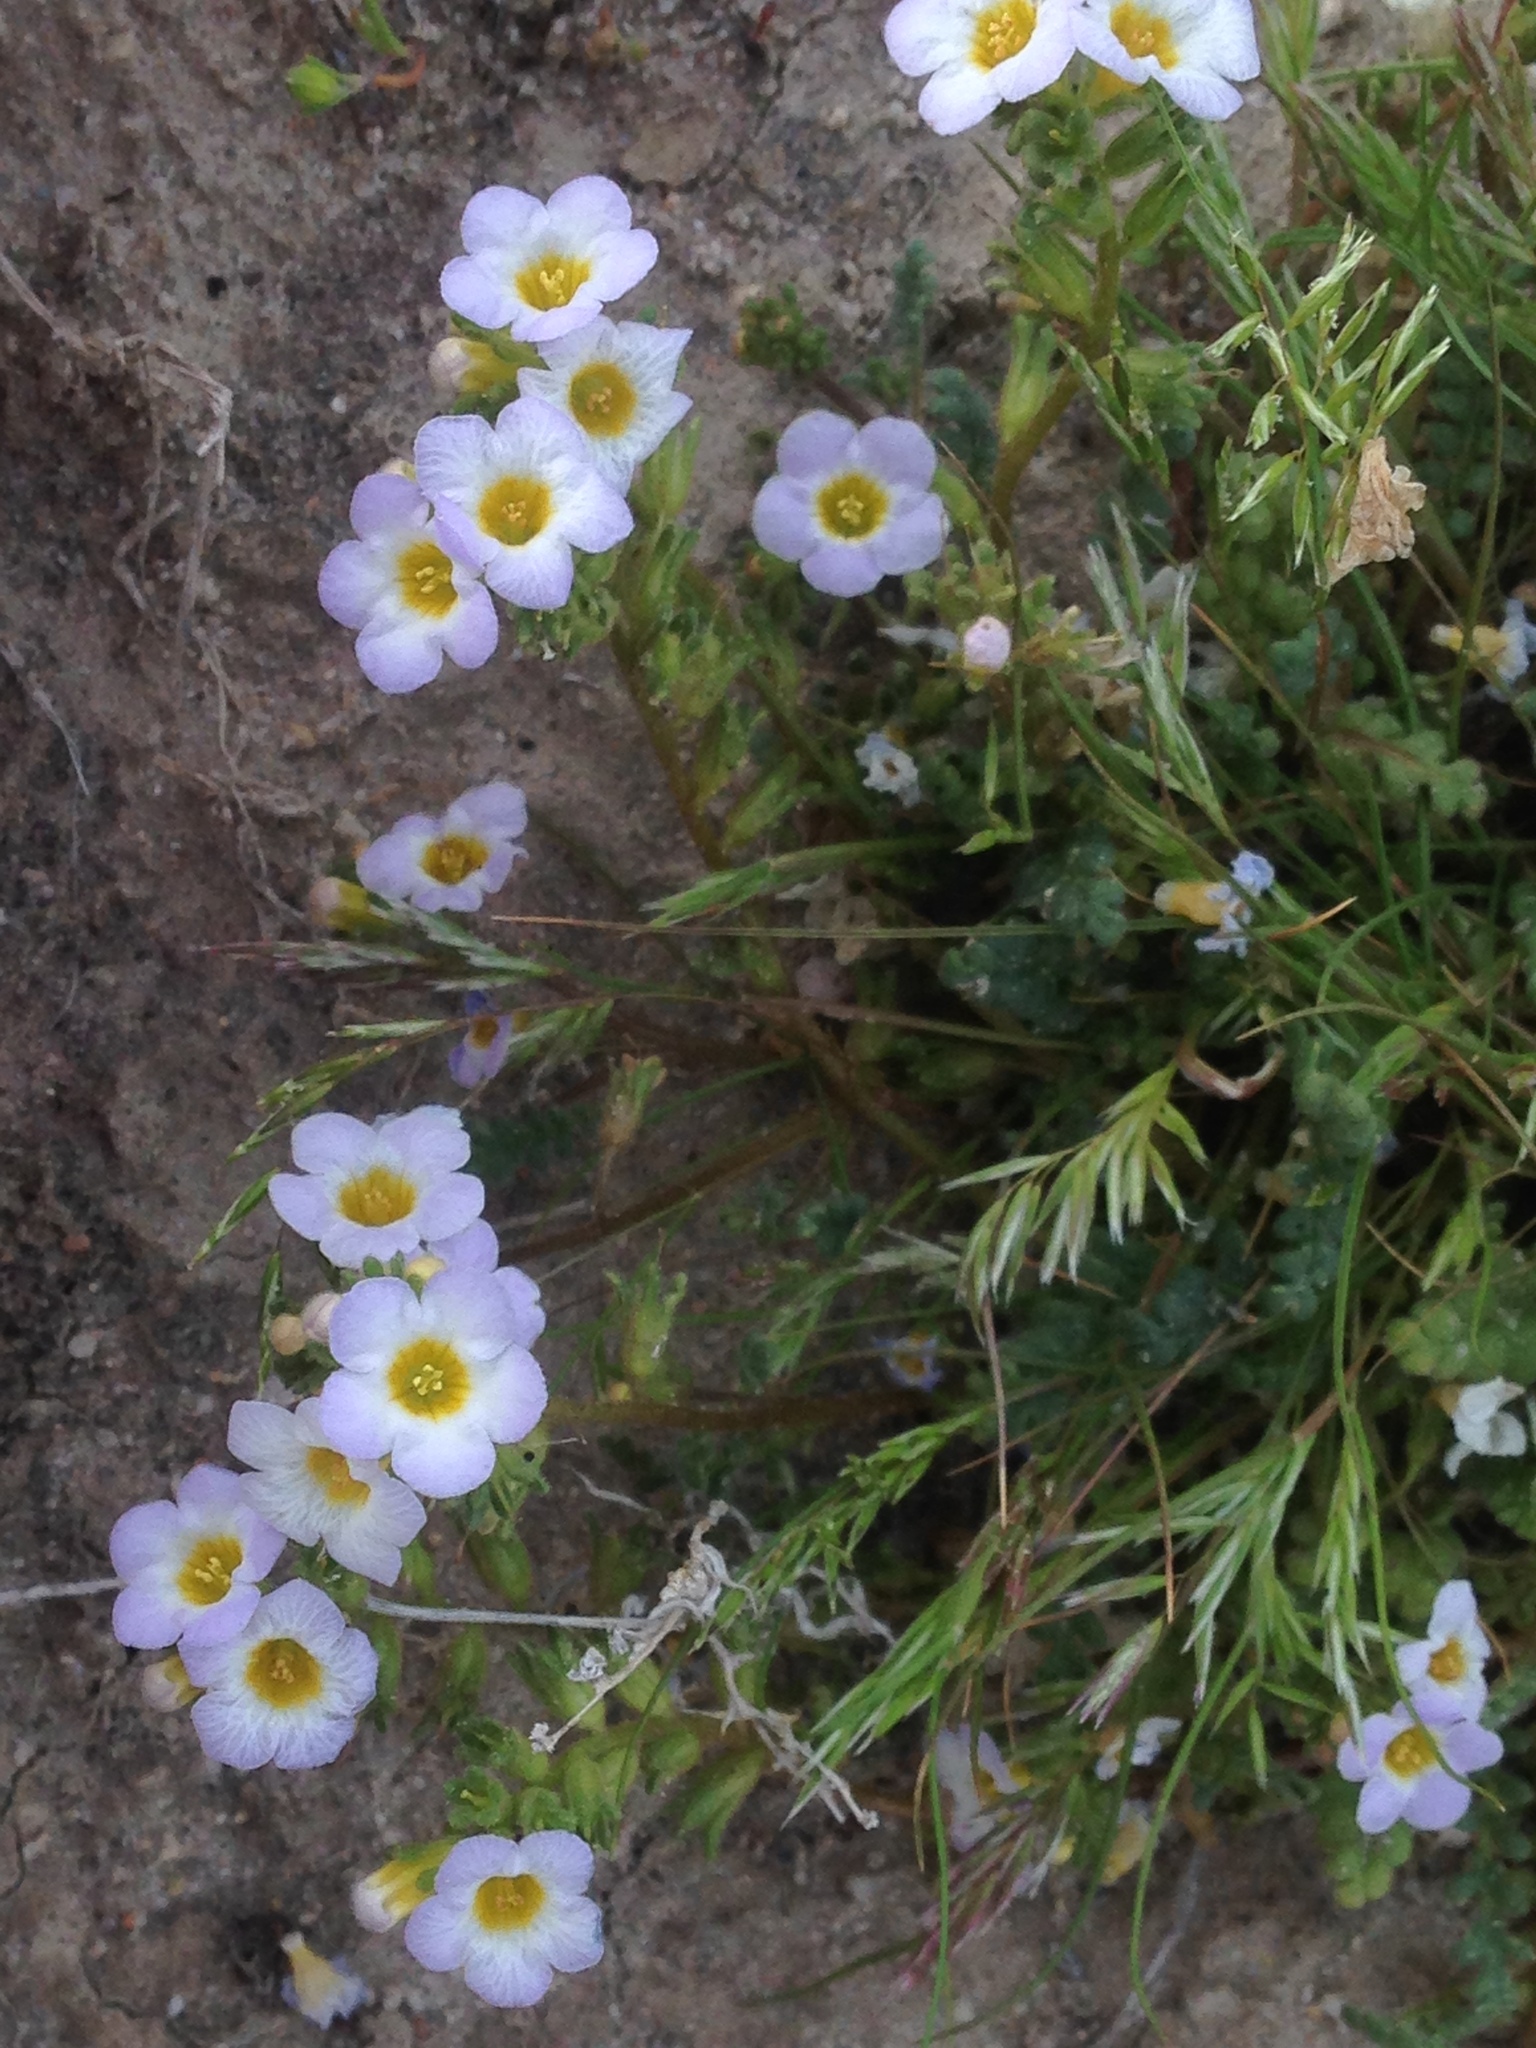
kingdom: Plantae
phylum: Tracheophyta
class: Magnoliopsida
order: Boraginales
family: Hydrophyllaceae
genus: Phacelia
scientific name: Phacelia fremontii
